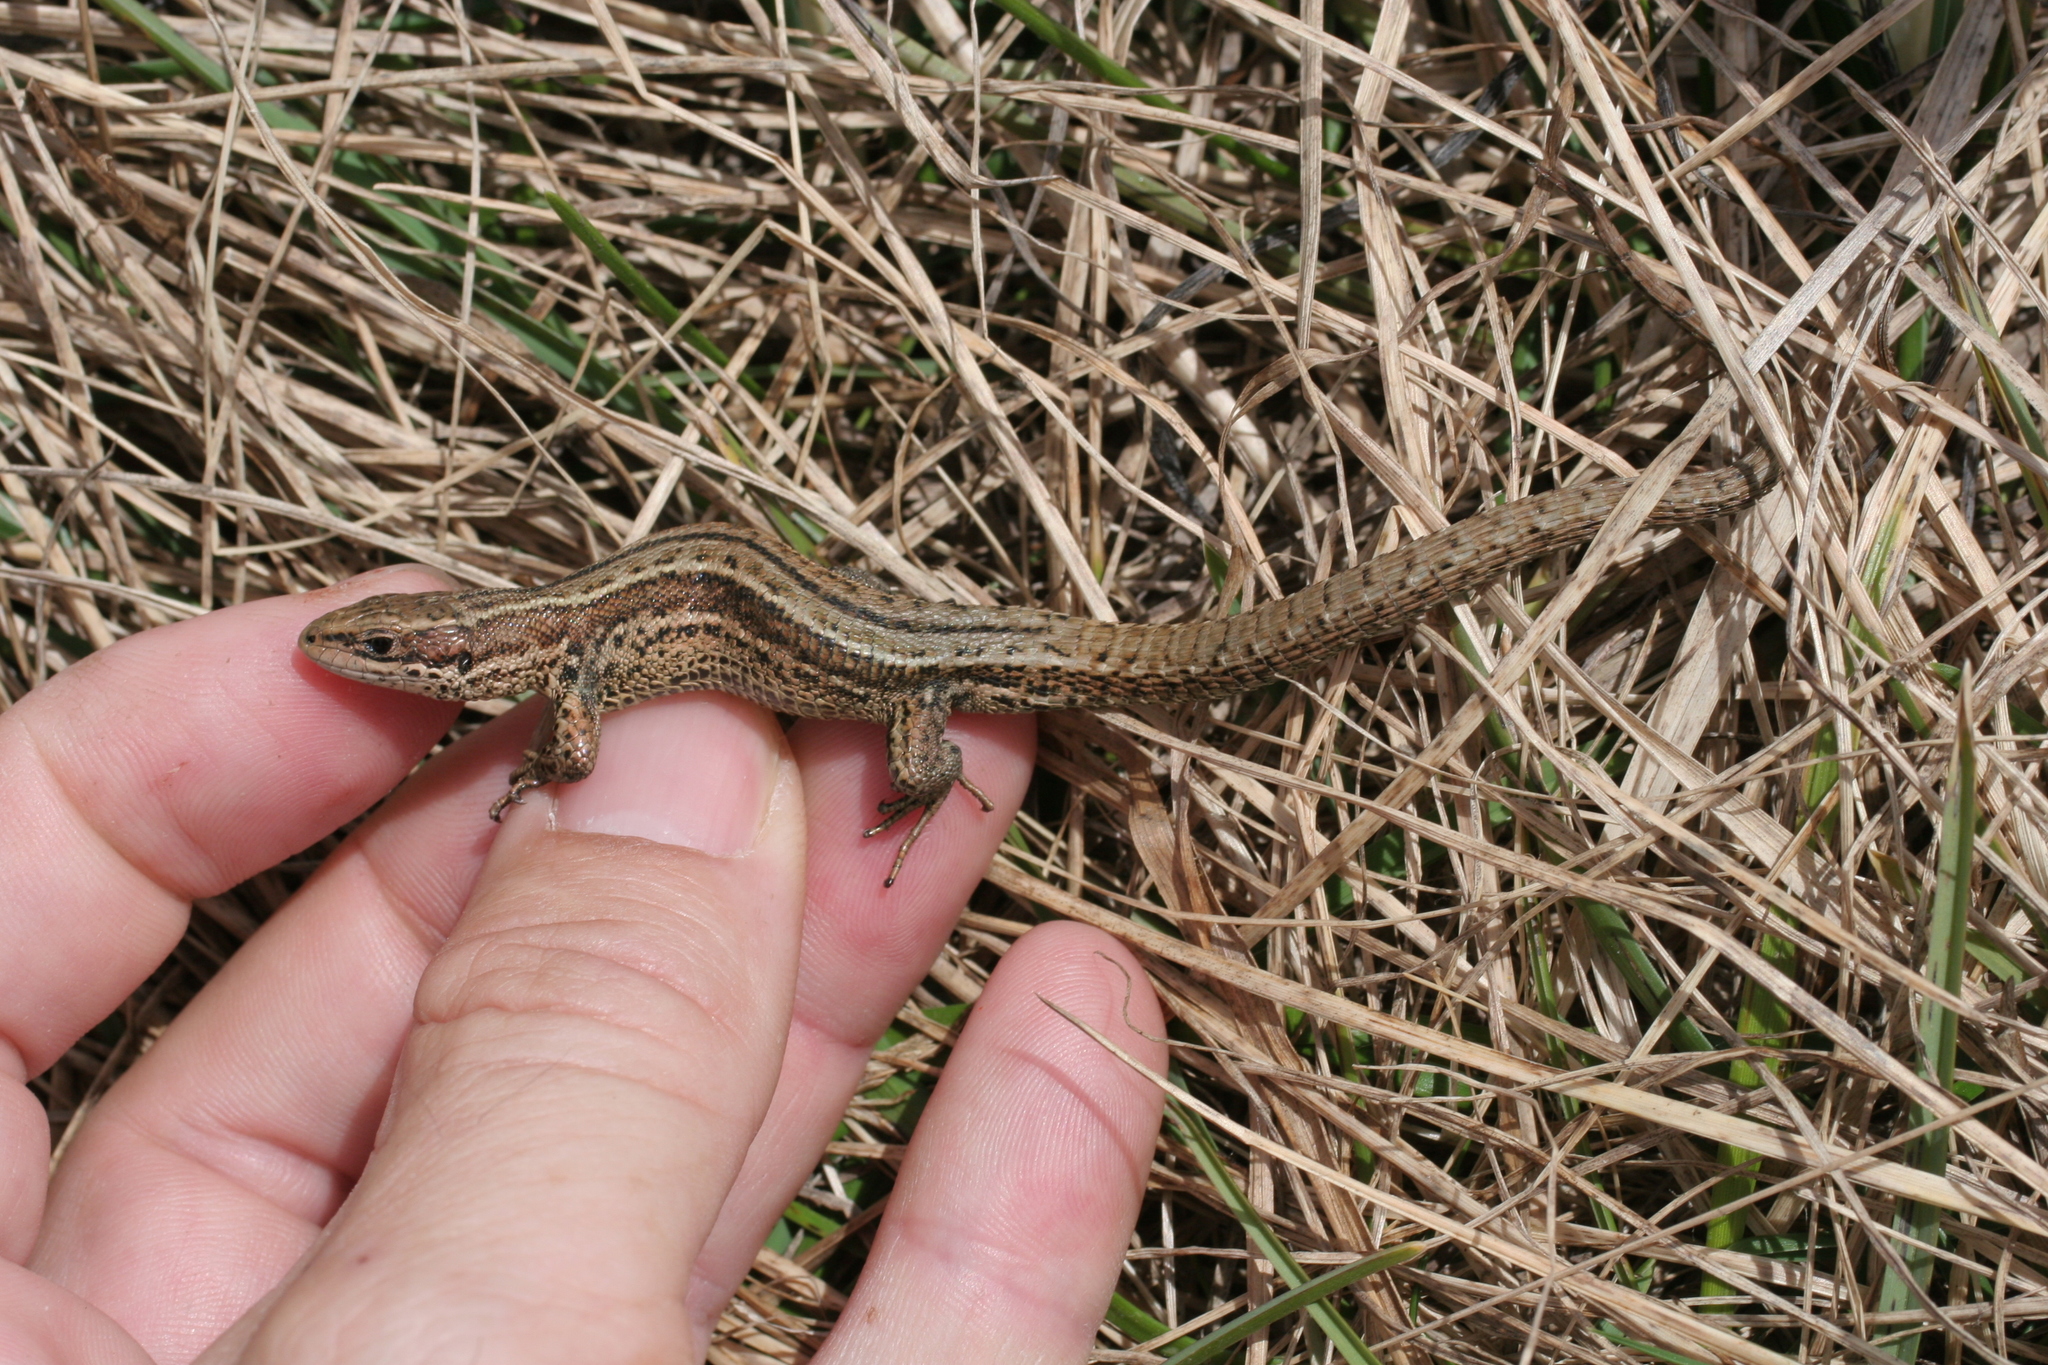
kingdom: Animalia
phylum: Chordata
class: Squamata
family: Lacertidae
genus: Zootoca
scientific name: Zootoca vivipara
